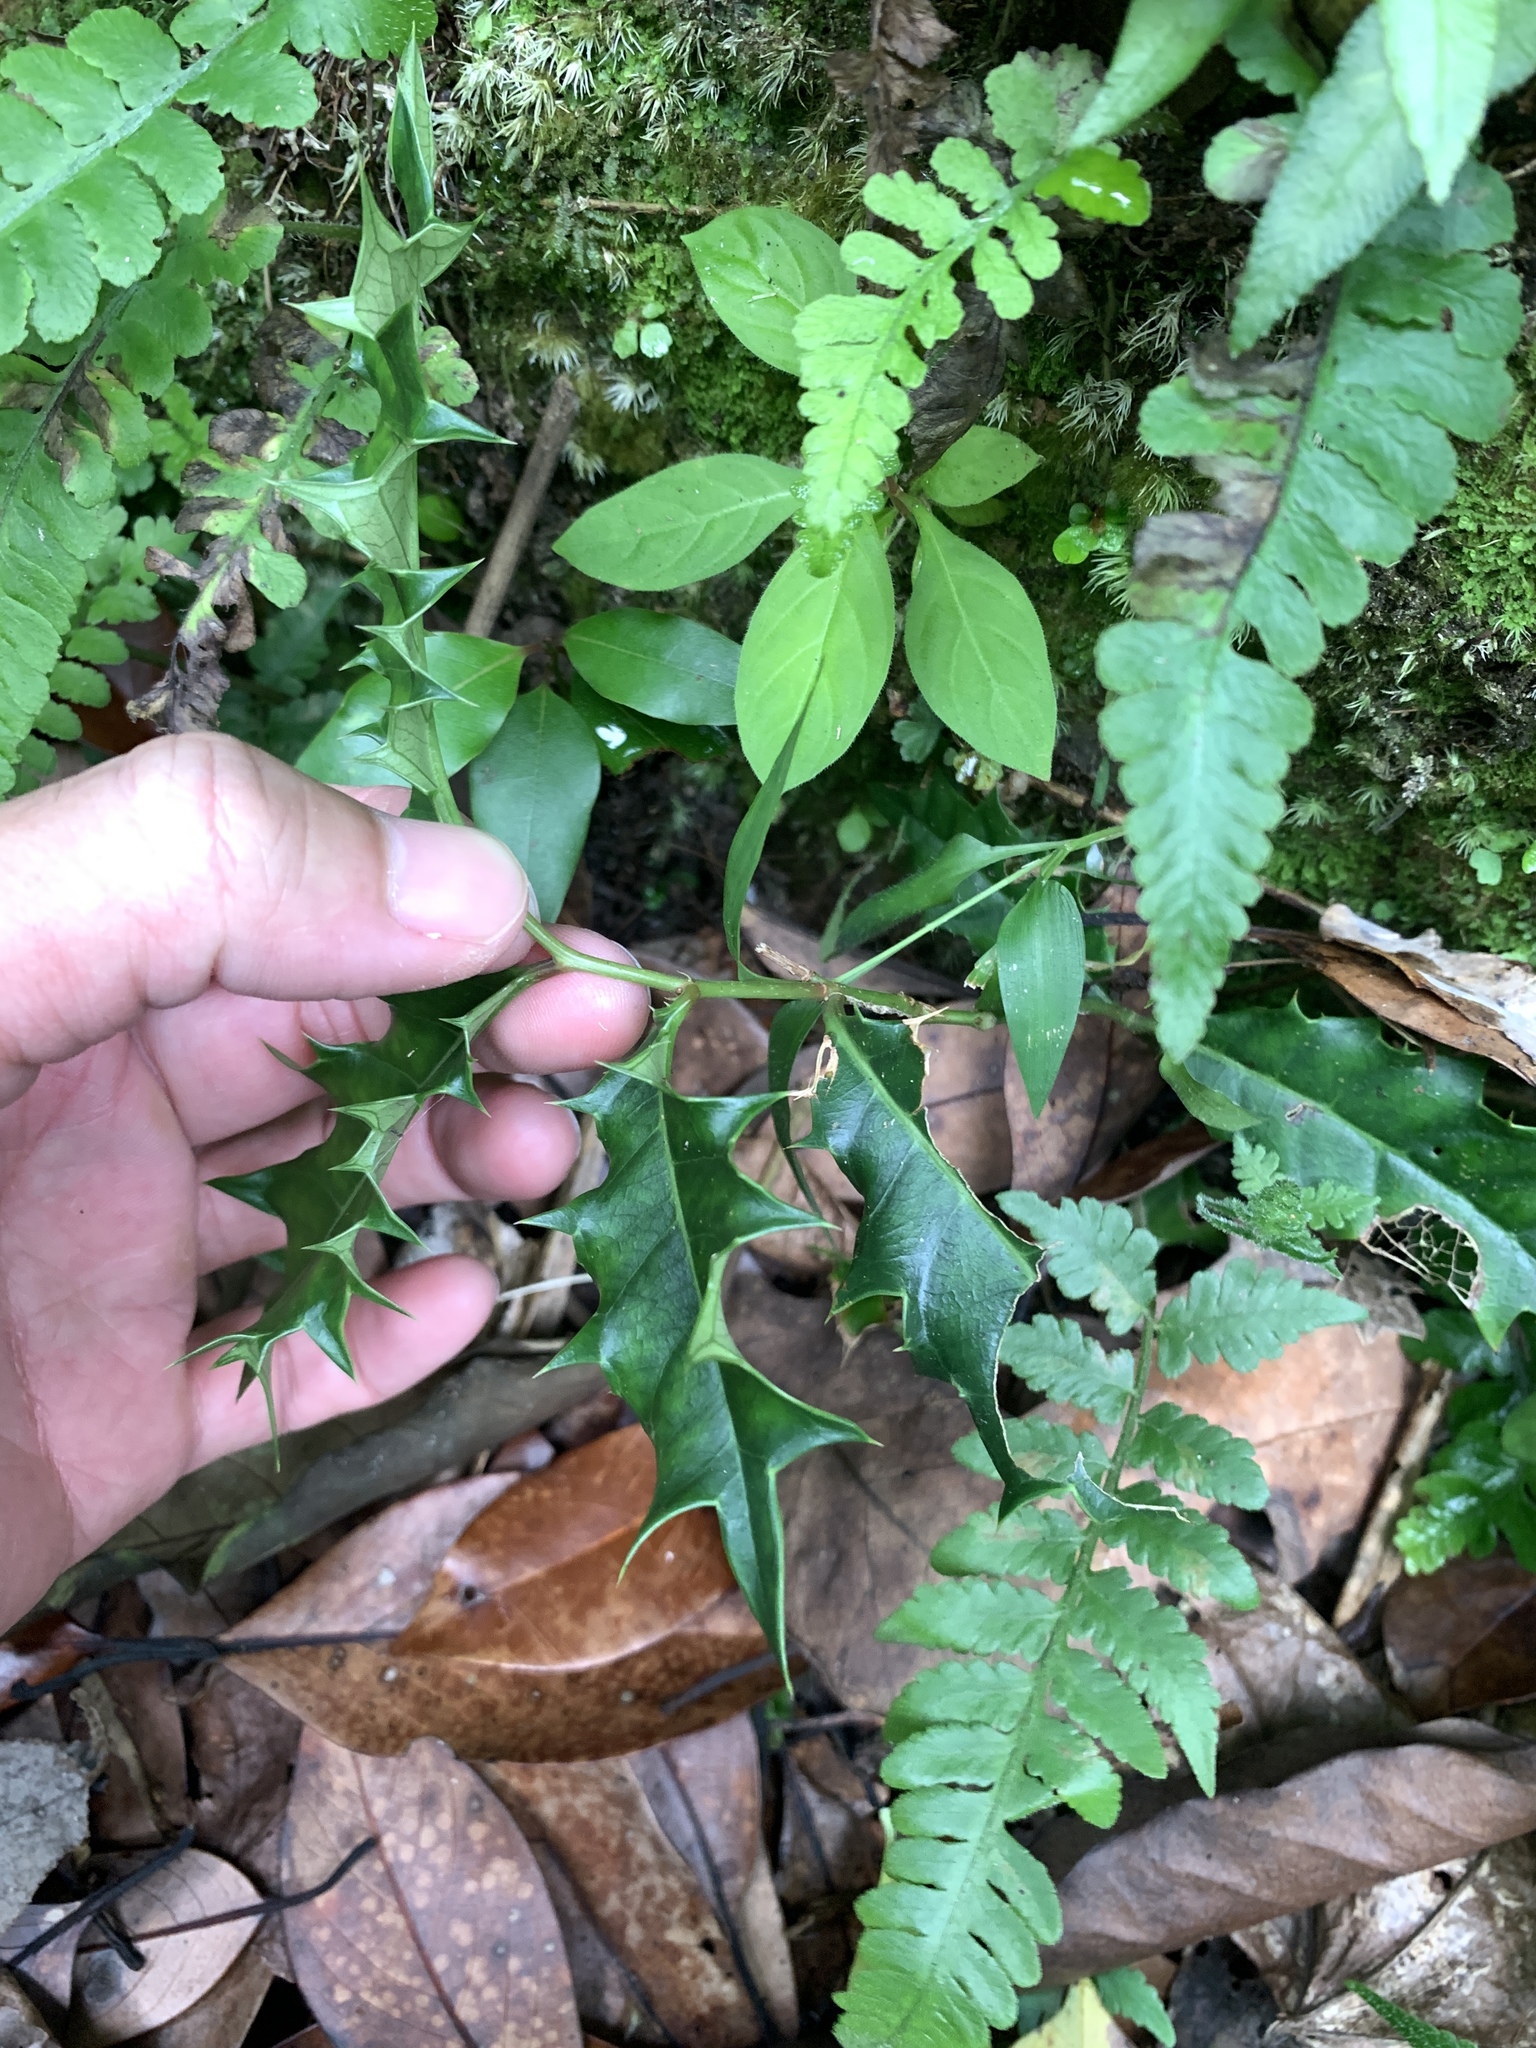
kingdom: Plantae
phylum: Tracheophyta
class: Magnoliopsida
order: Saxifragales
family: Iteaceae
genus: Itea
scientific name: Itea oldhamii
